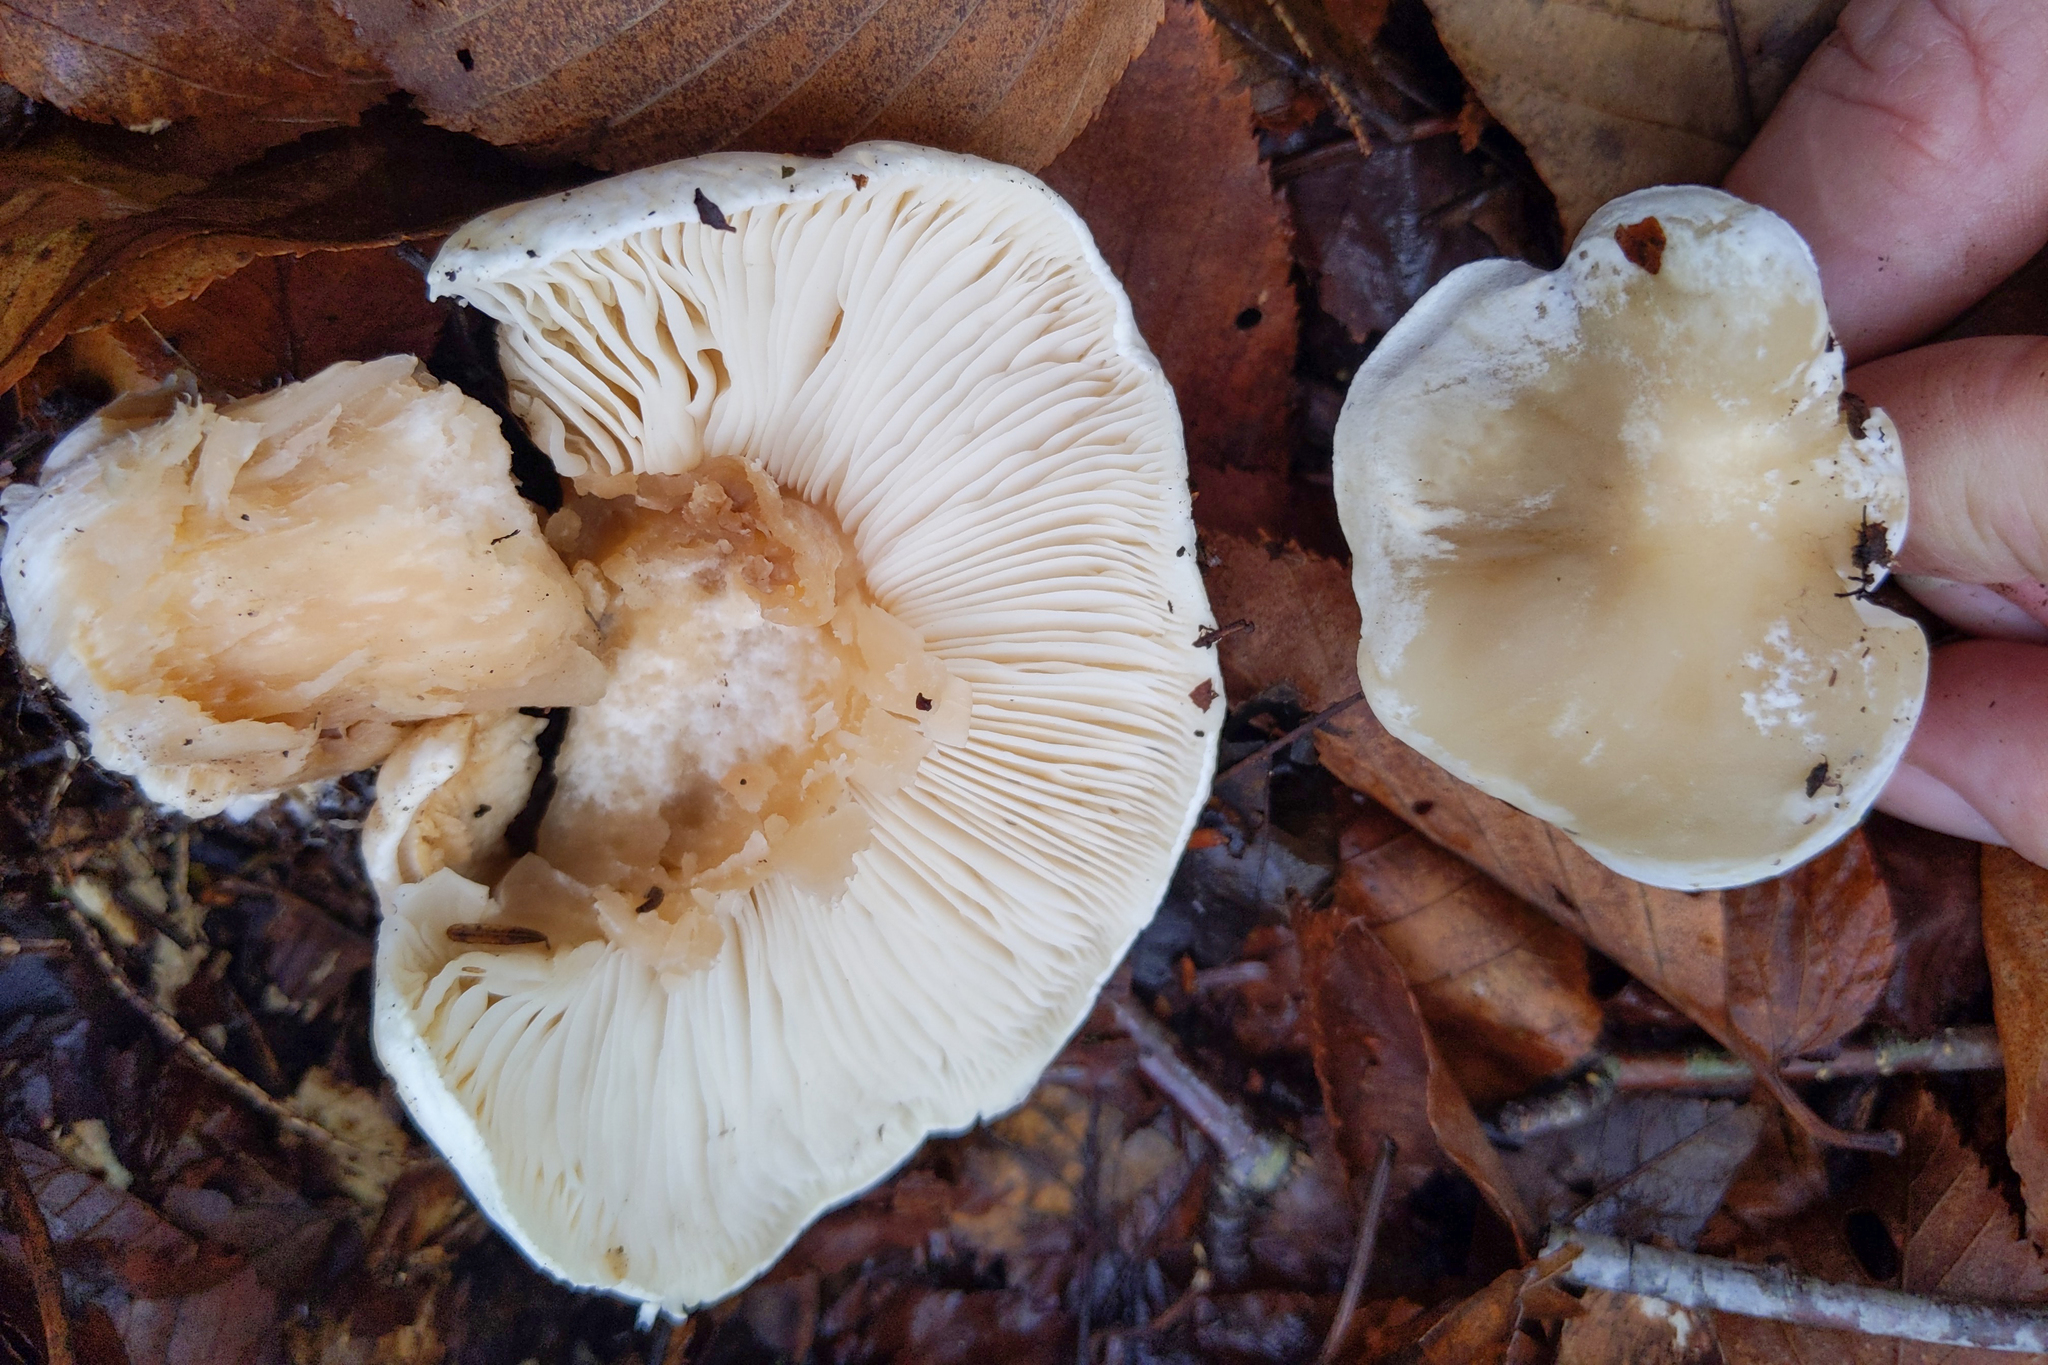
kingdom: Fungi
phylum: Basidiomycota
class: Agaricomycetes
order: Agaricales
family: Tricholomataceae
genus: Tricholoma
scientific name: Tricholoma saponaceum
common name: Soapy trich
